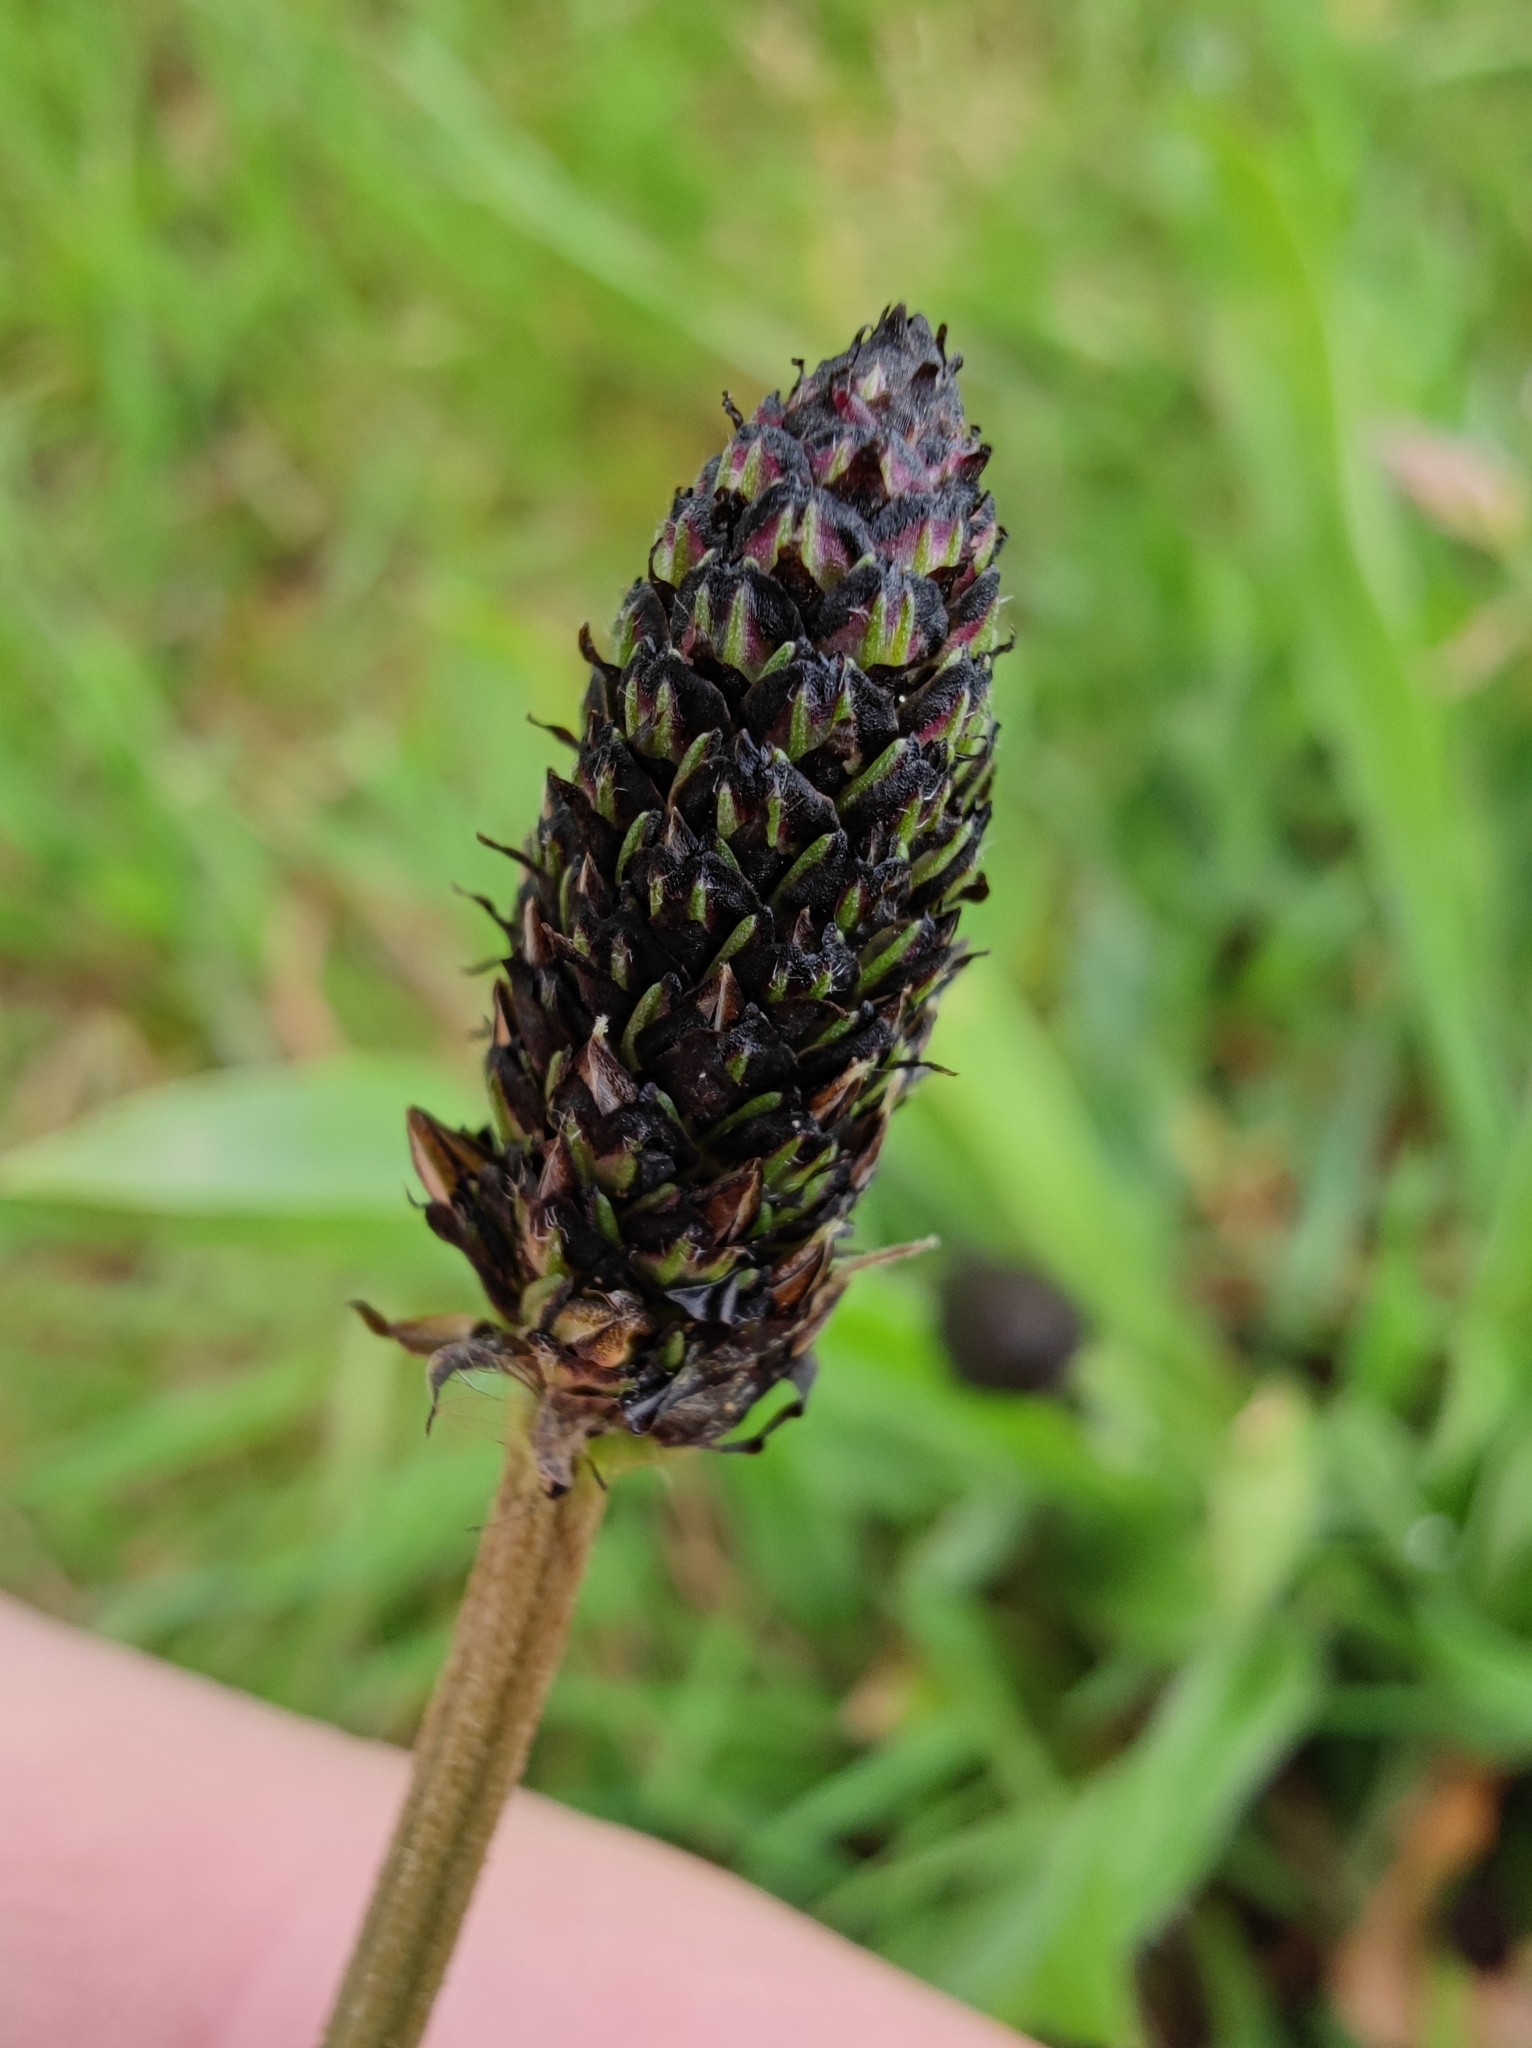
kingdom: Plantae
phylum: Tracheophyta
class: Magnoliopsida
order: Lamiales
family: Plantaginaceae
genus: Plantago
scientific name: Plantago lanceolata
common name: Ribwort plantain
